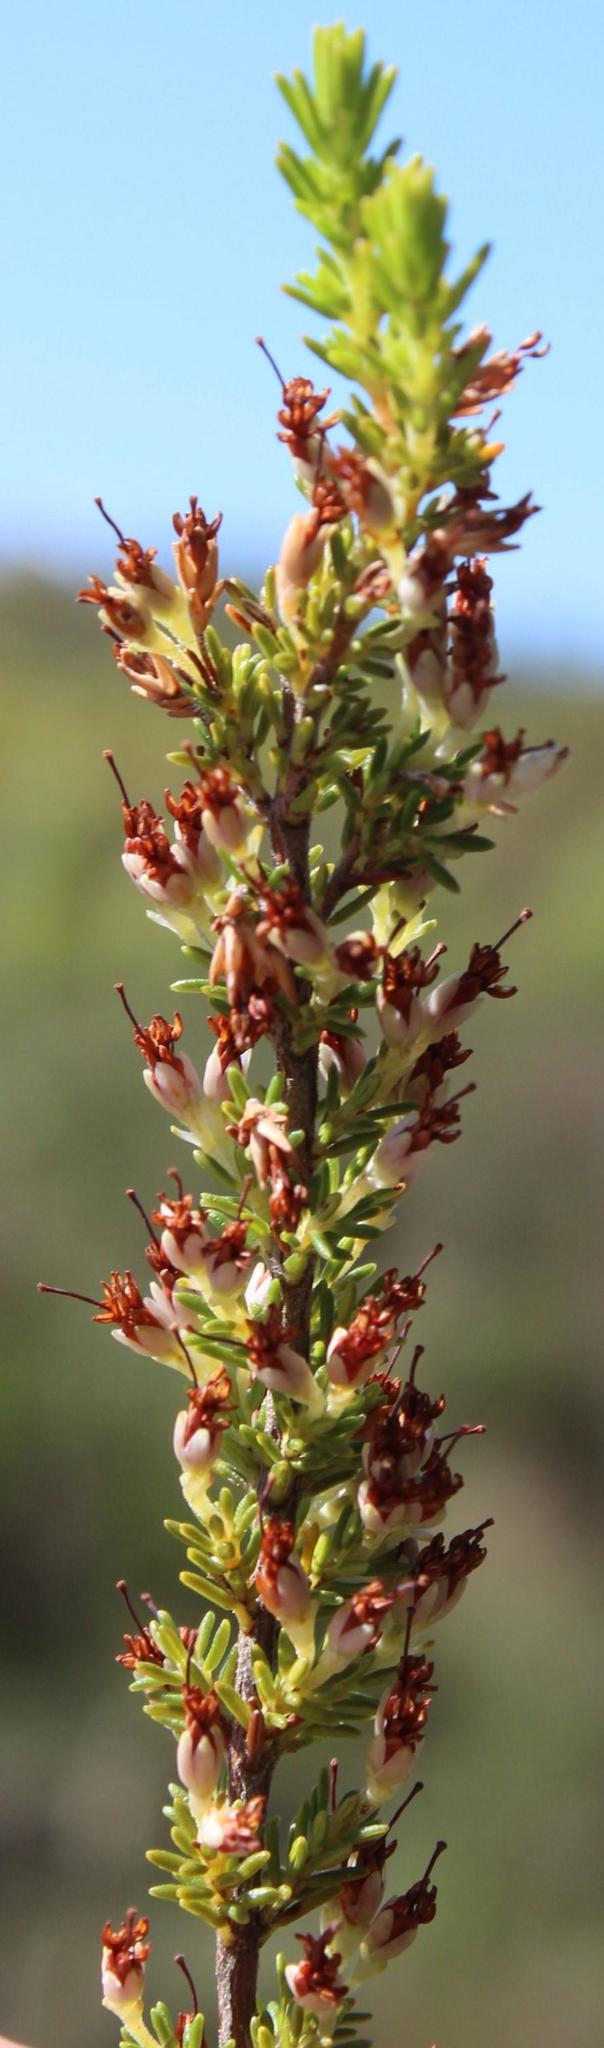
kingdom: Plantae
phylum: Tracheophyta
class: Magnoliopsida
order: Ericales
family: Ericaceae
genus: Erica
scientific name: Erica imbricata
